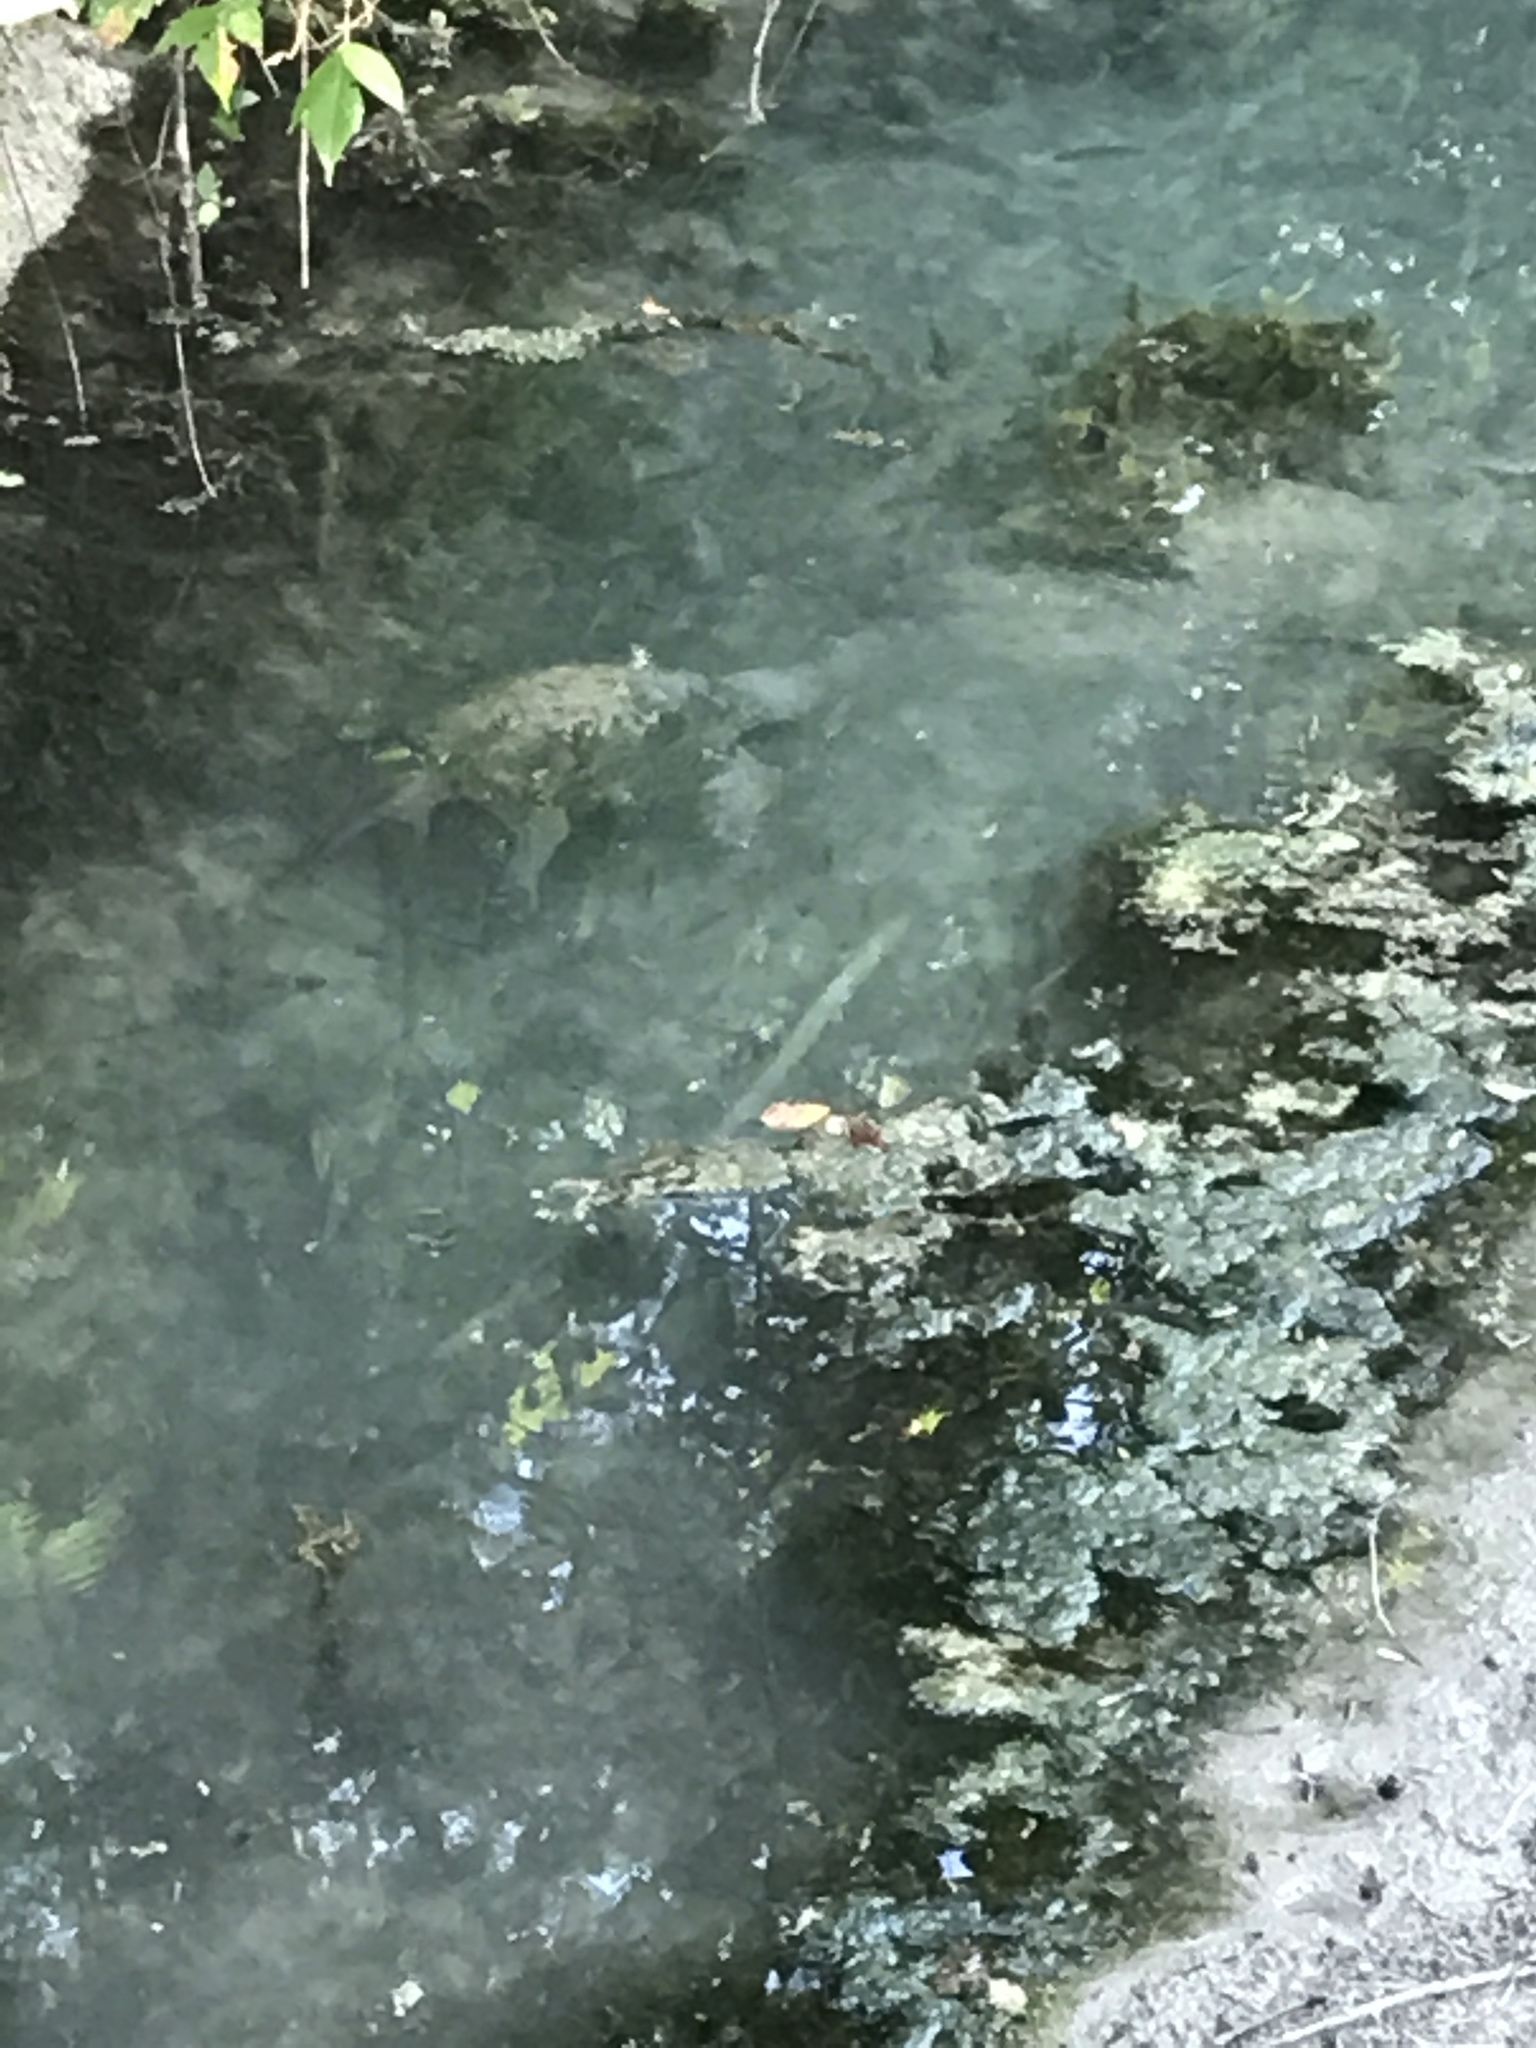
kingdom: Animalia
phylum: Chordata
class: Testudines
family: Chelydridae
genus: Chelydra
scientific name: Chelydra serpentina
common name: Common snapping turtle
